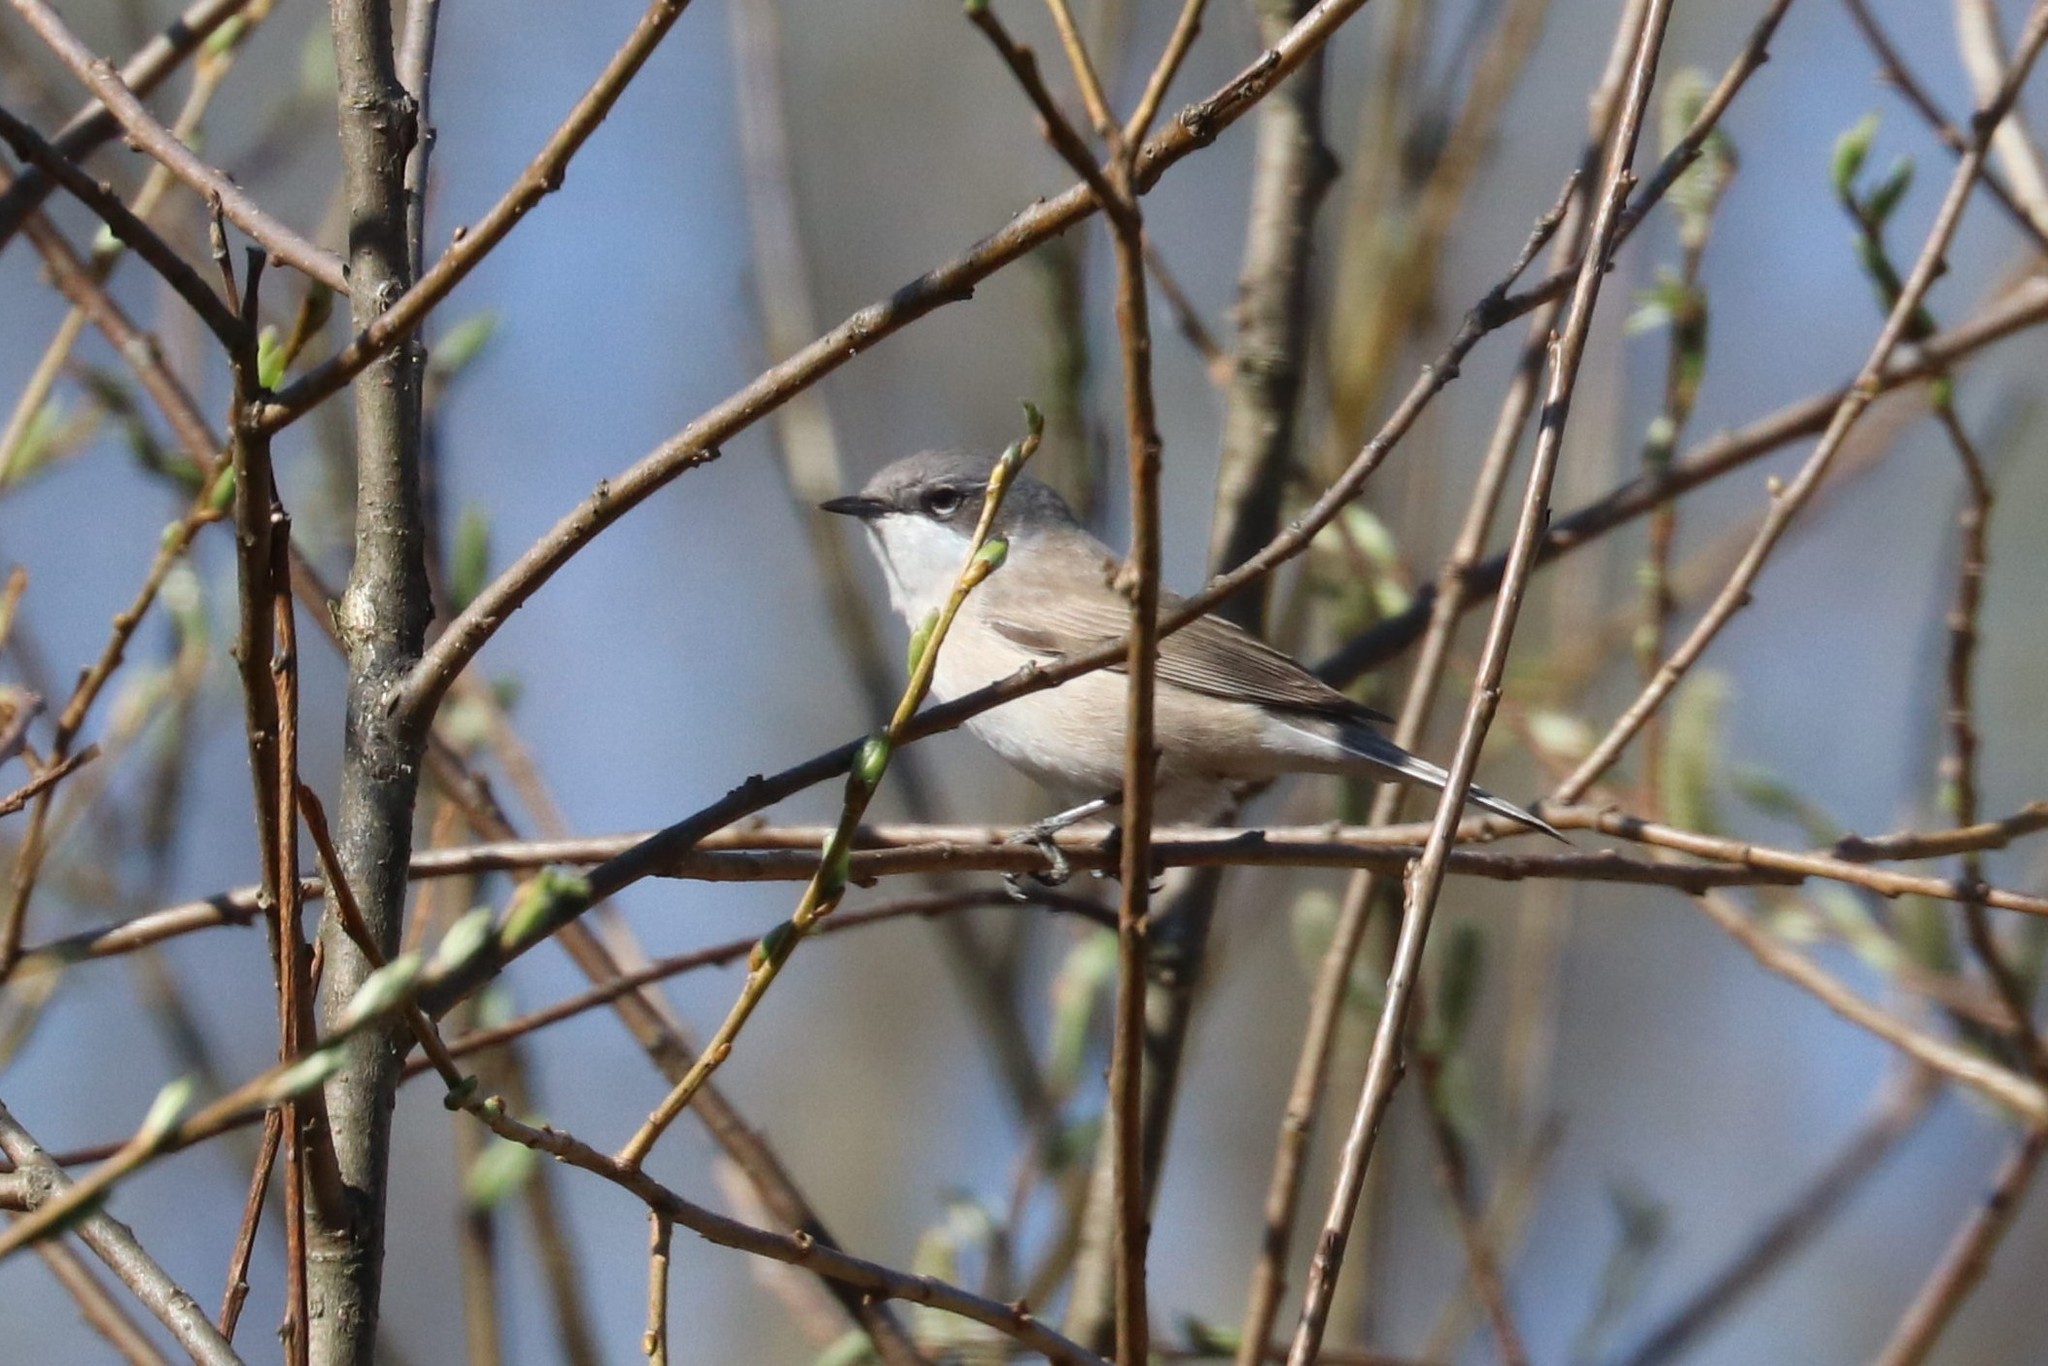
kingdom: Animalia
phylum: Chordata
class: Aves
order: Passeriformes
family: Sylviidae
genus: Sylvia
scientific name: Sylvia curruca
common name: Lesser whitethroat
